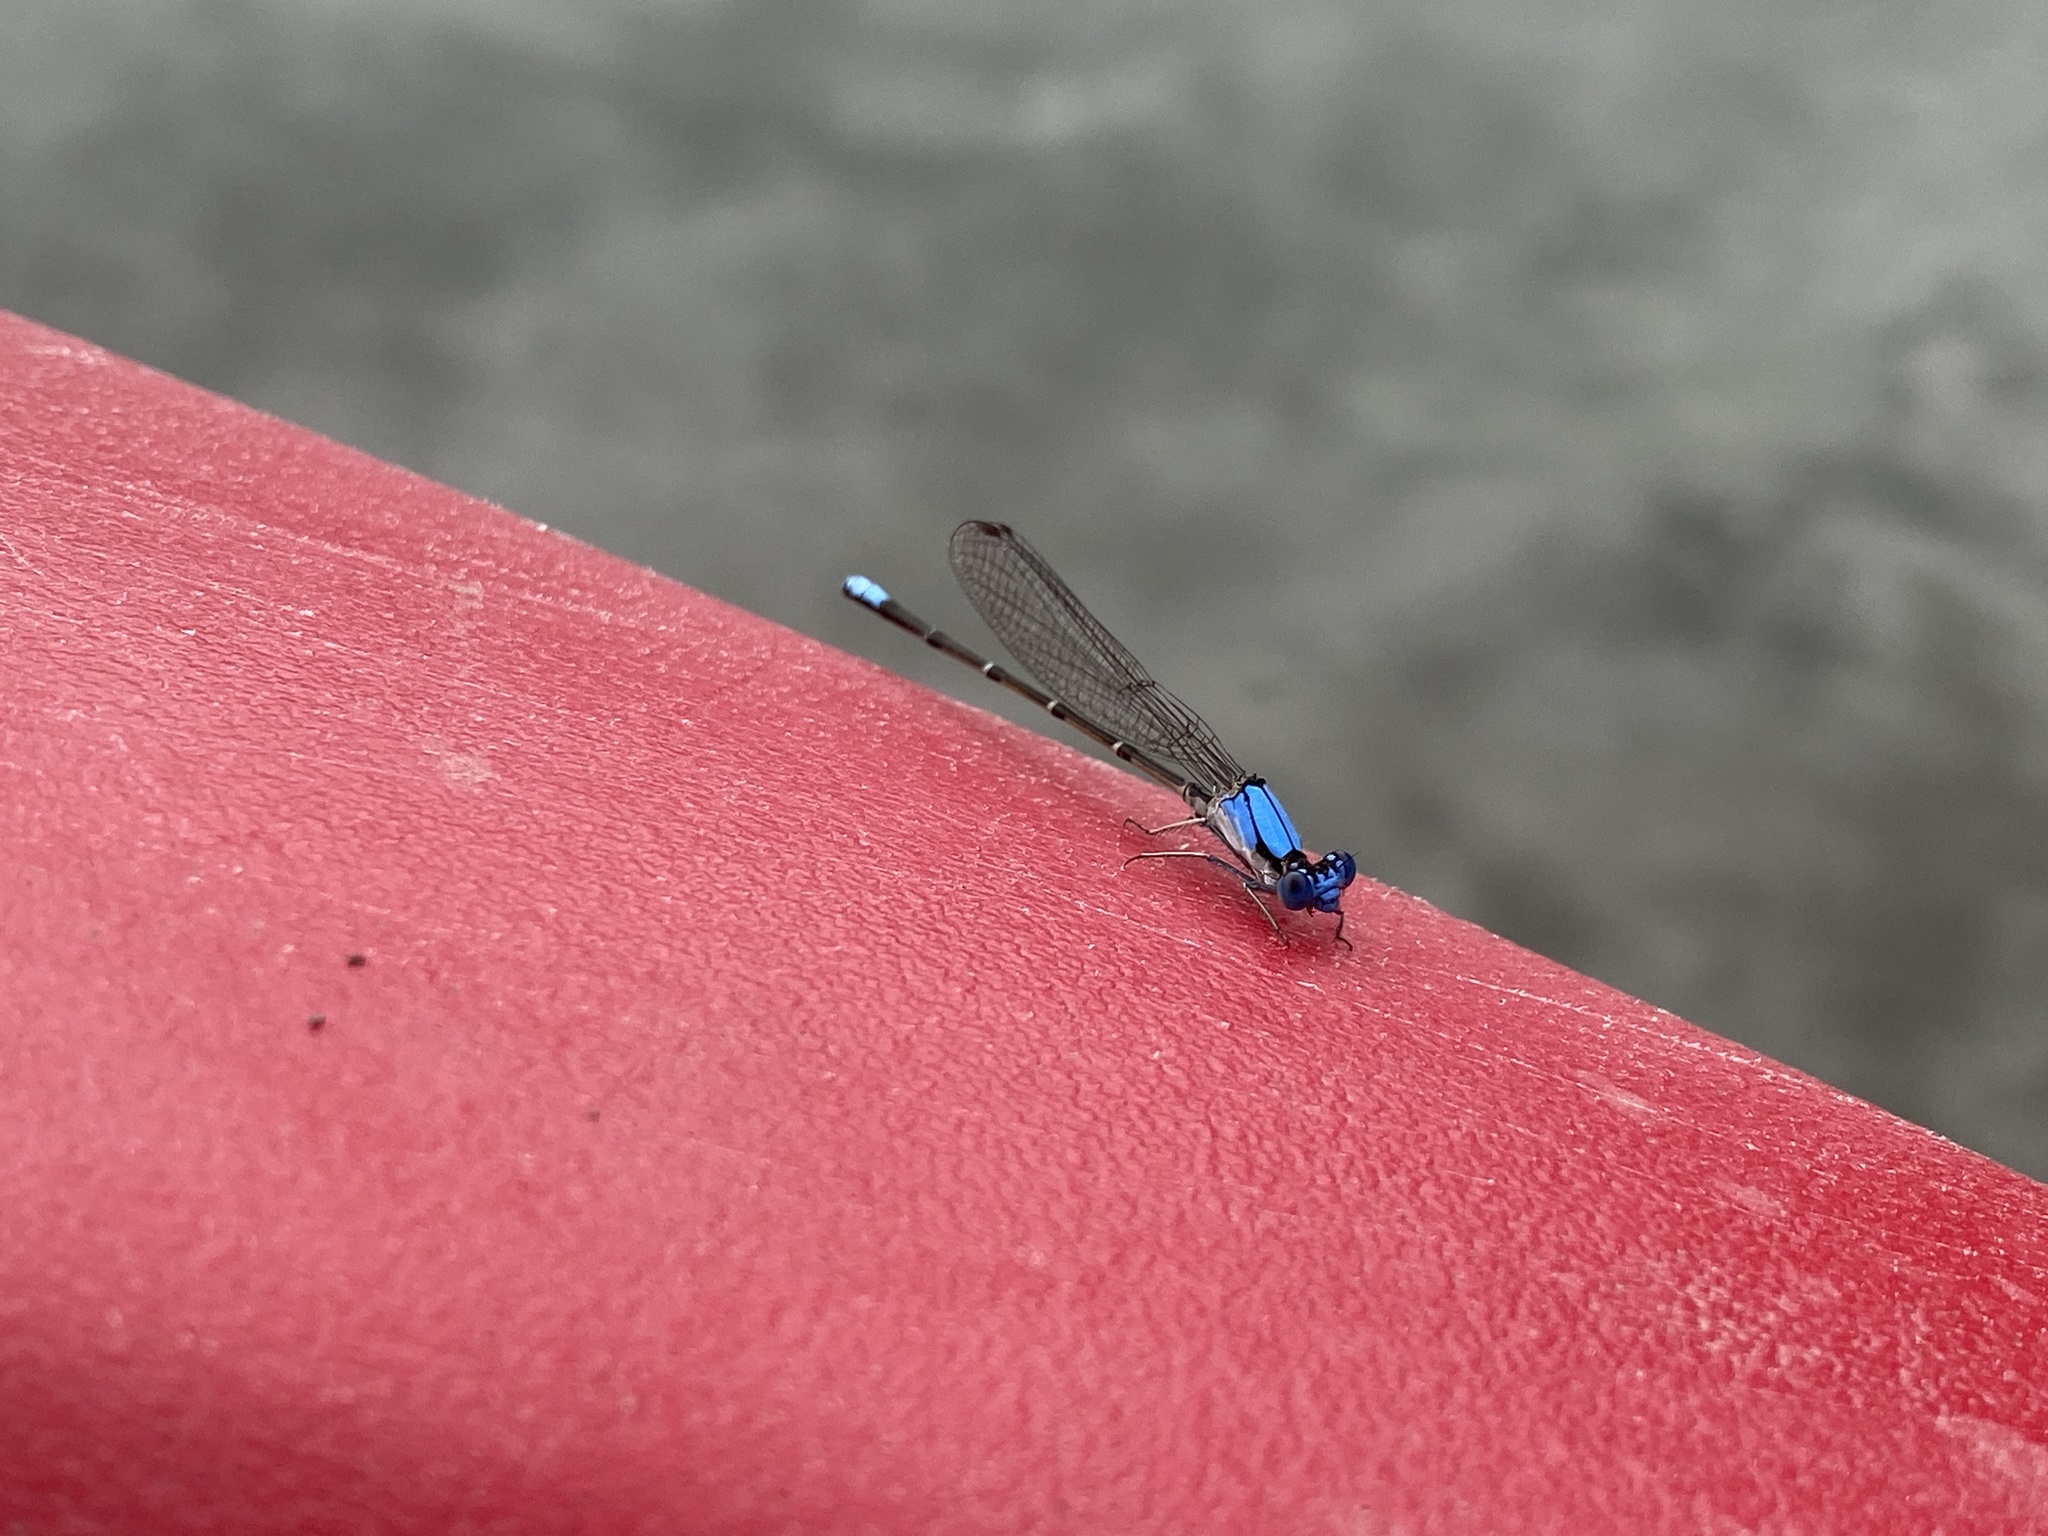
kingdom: Animalia
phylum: Arthropoda
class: Insecta
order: Odonata
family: Coenagrionidae
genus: Argia
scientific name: Argia apicalis
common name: Blue-fronted dancer
